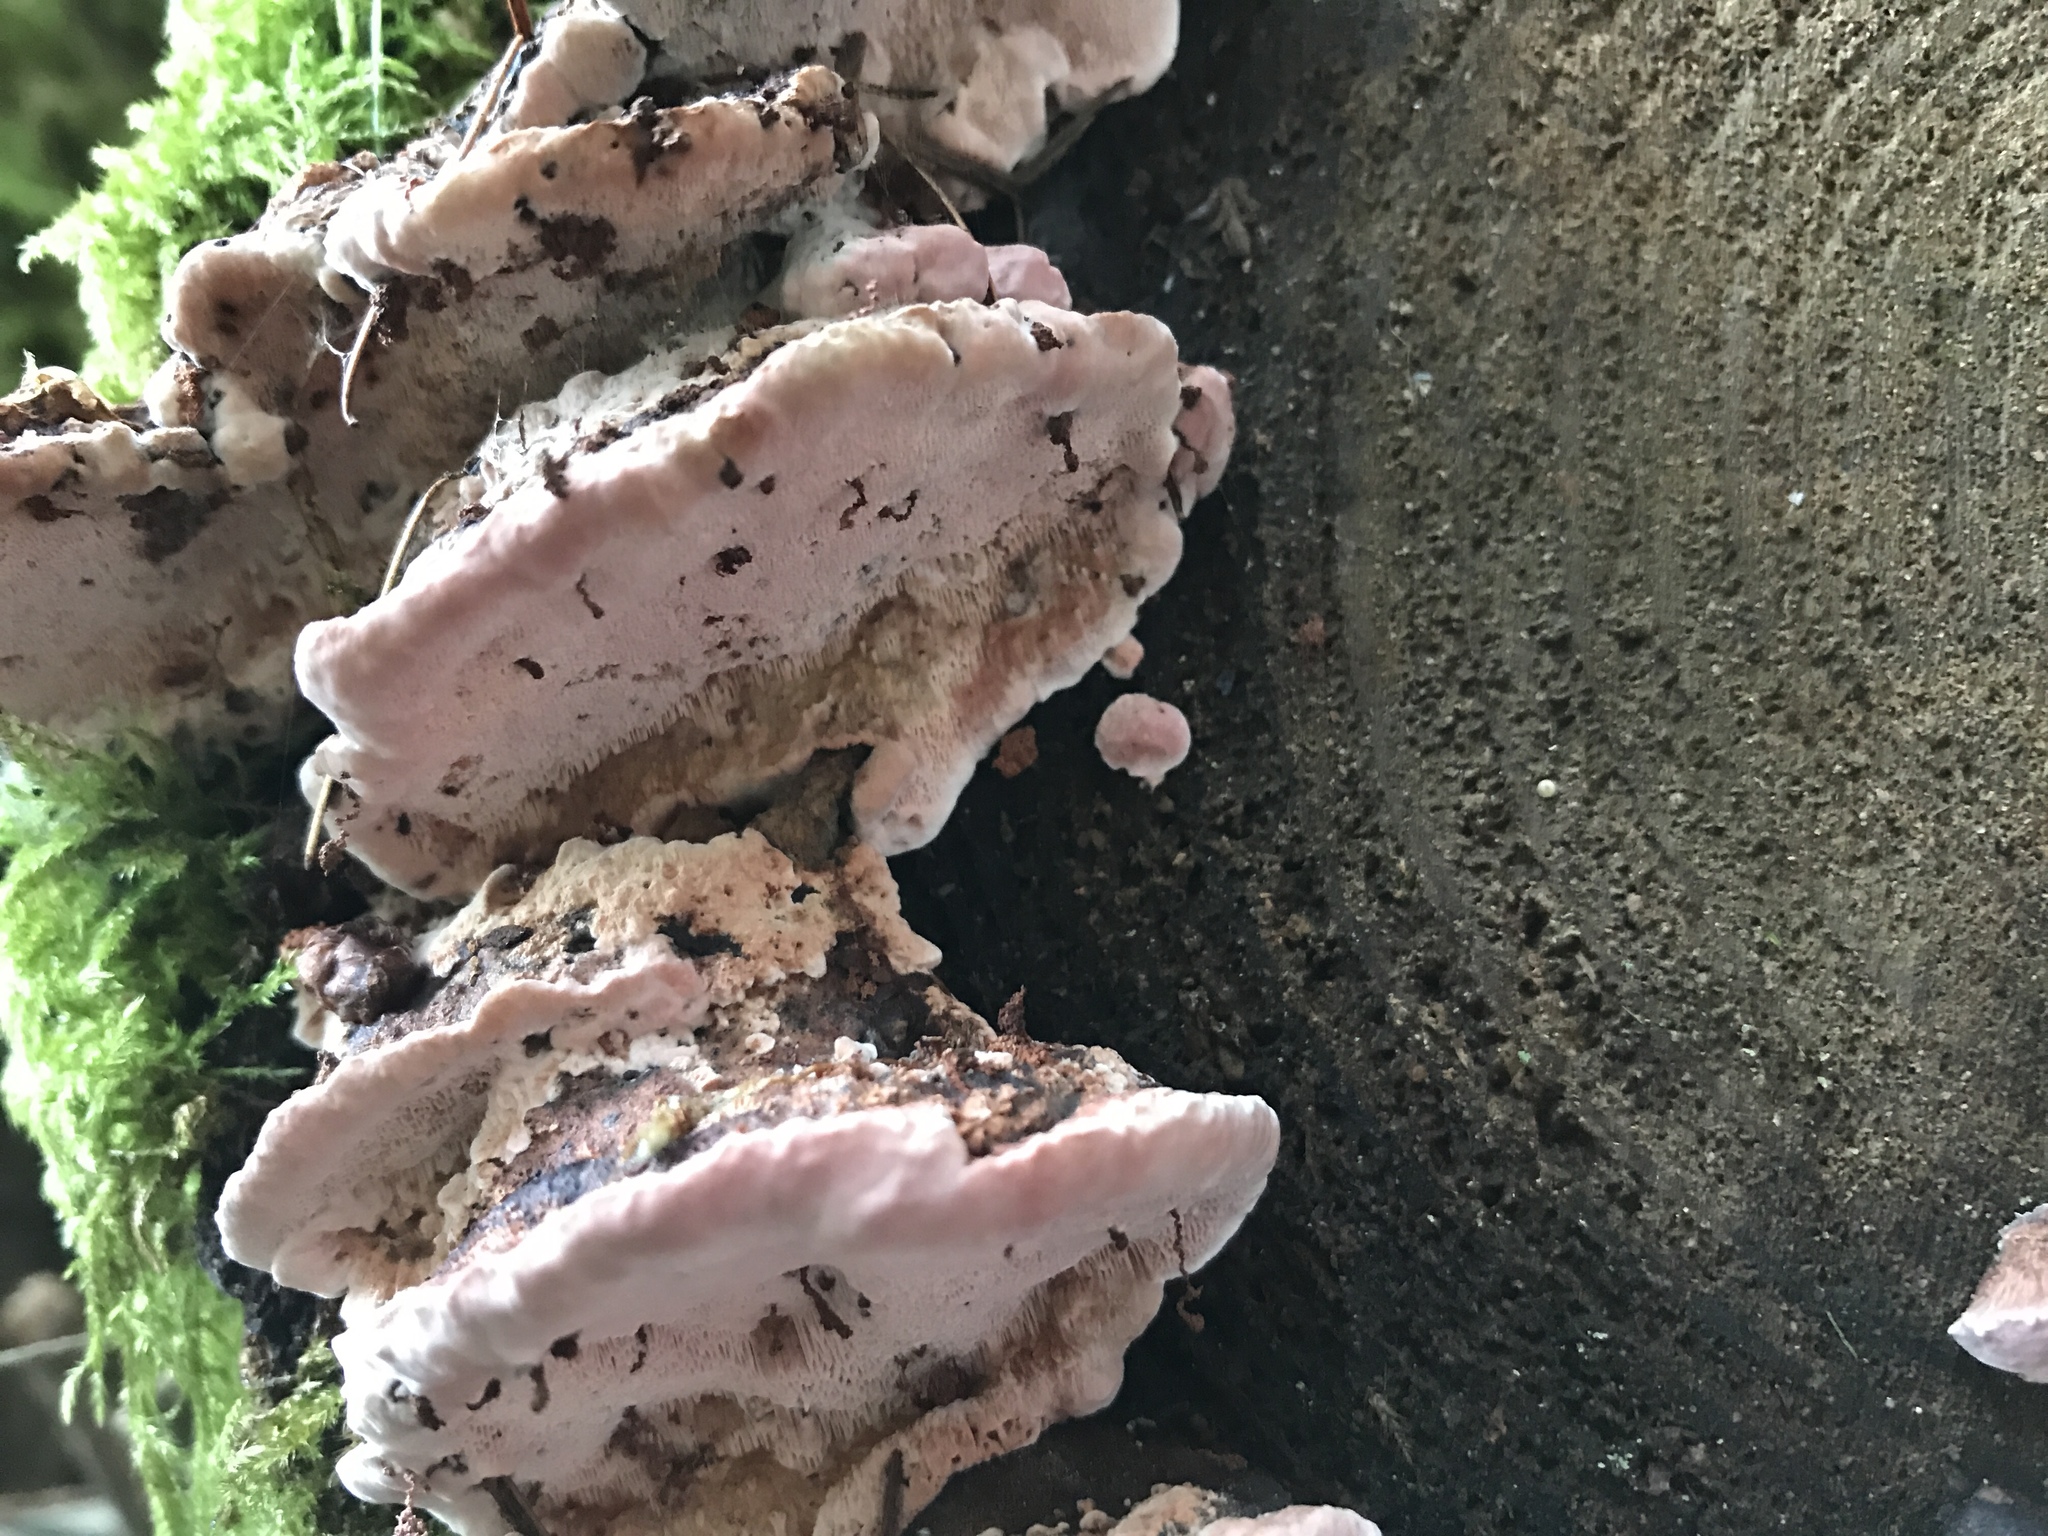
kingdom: Fungi
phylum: Basidiomycota
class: Agaricomycetes
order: Polyporales
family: Fomitopsidaceae
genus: Rhodofomes
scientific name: Rhodofomes cajanderi
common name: Rosy conk
